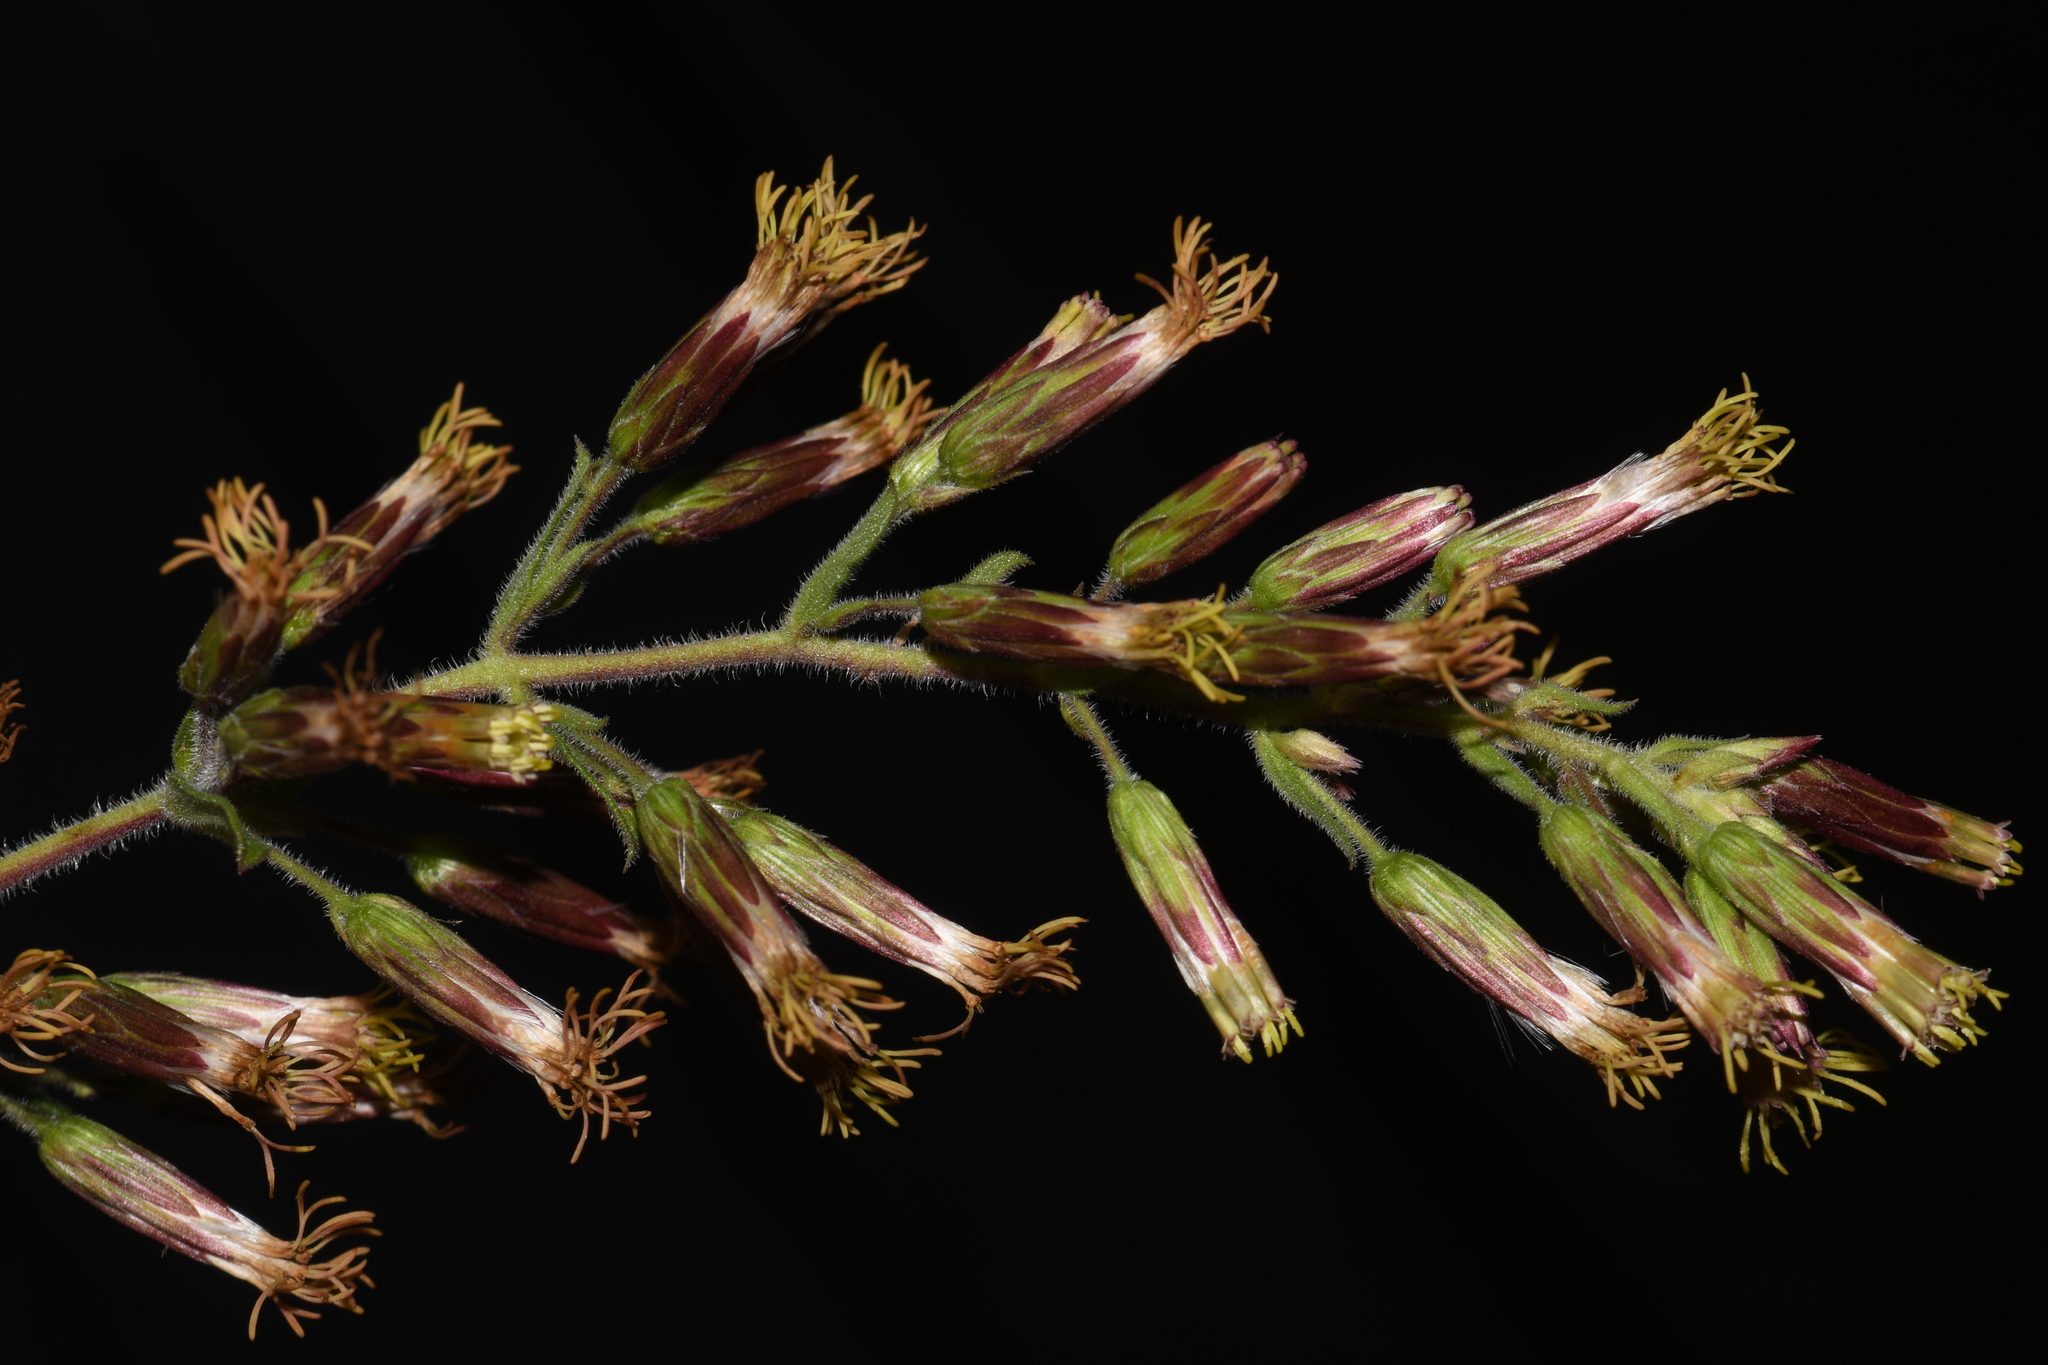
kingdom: Plantae
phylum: Tracheophyta
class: Magnoliopsida
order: Asterales
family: Asteraceae
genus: Brickellia
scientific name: Brickellia betonicifolia
